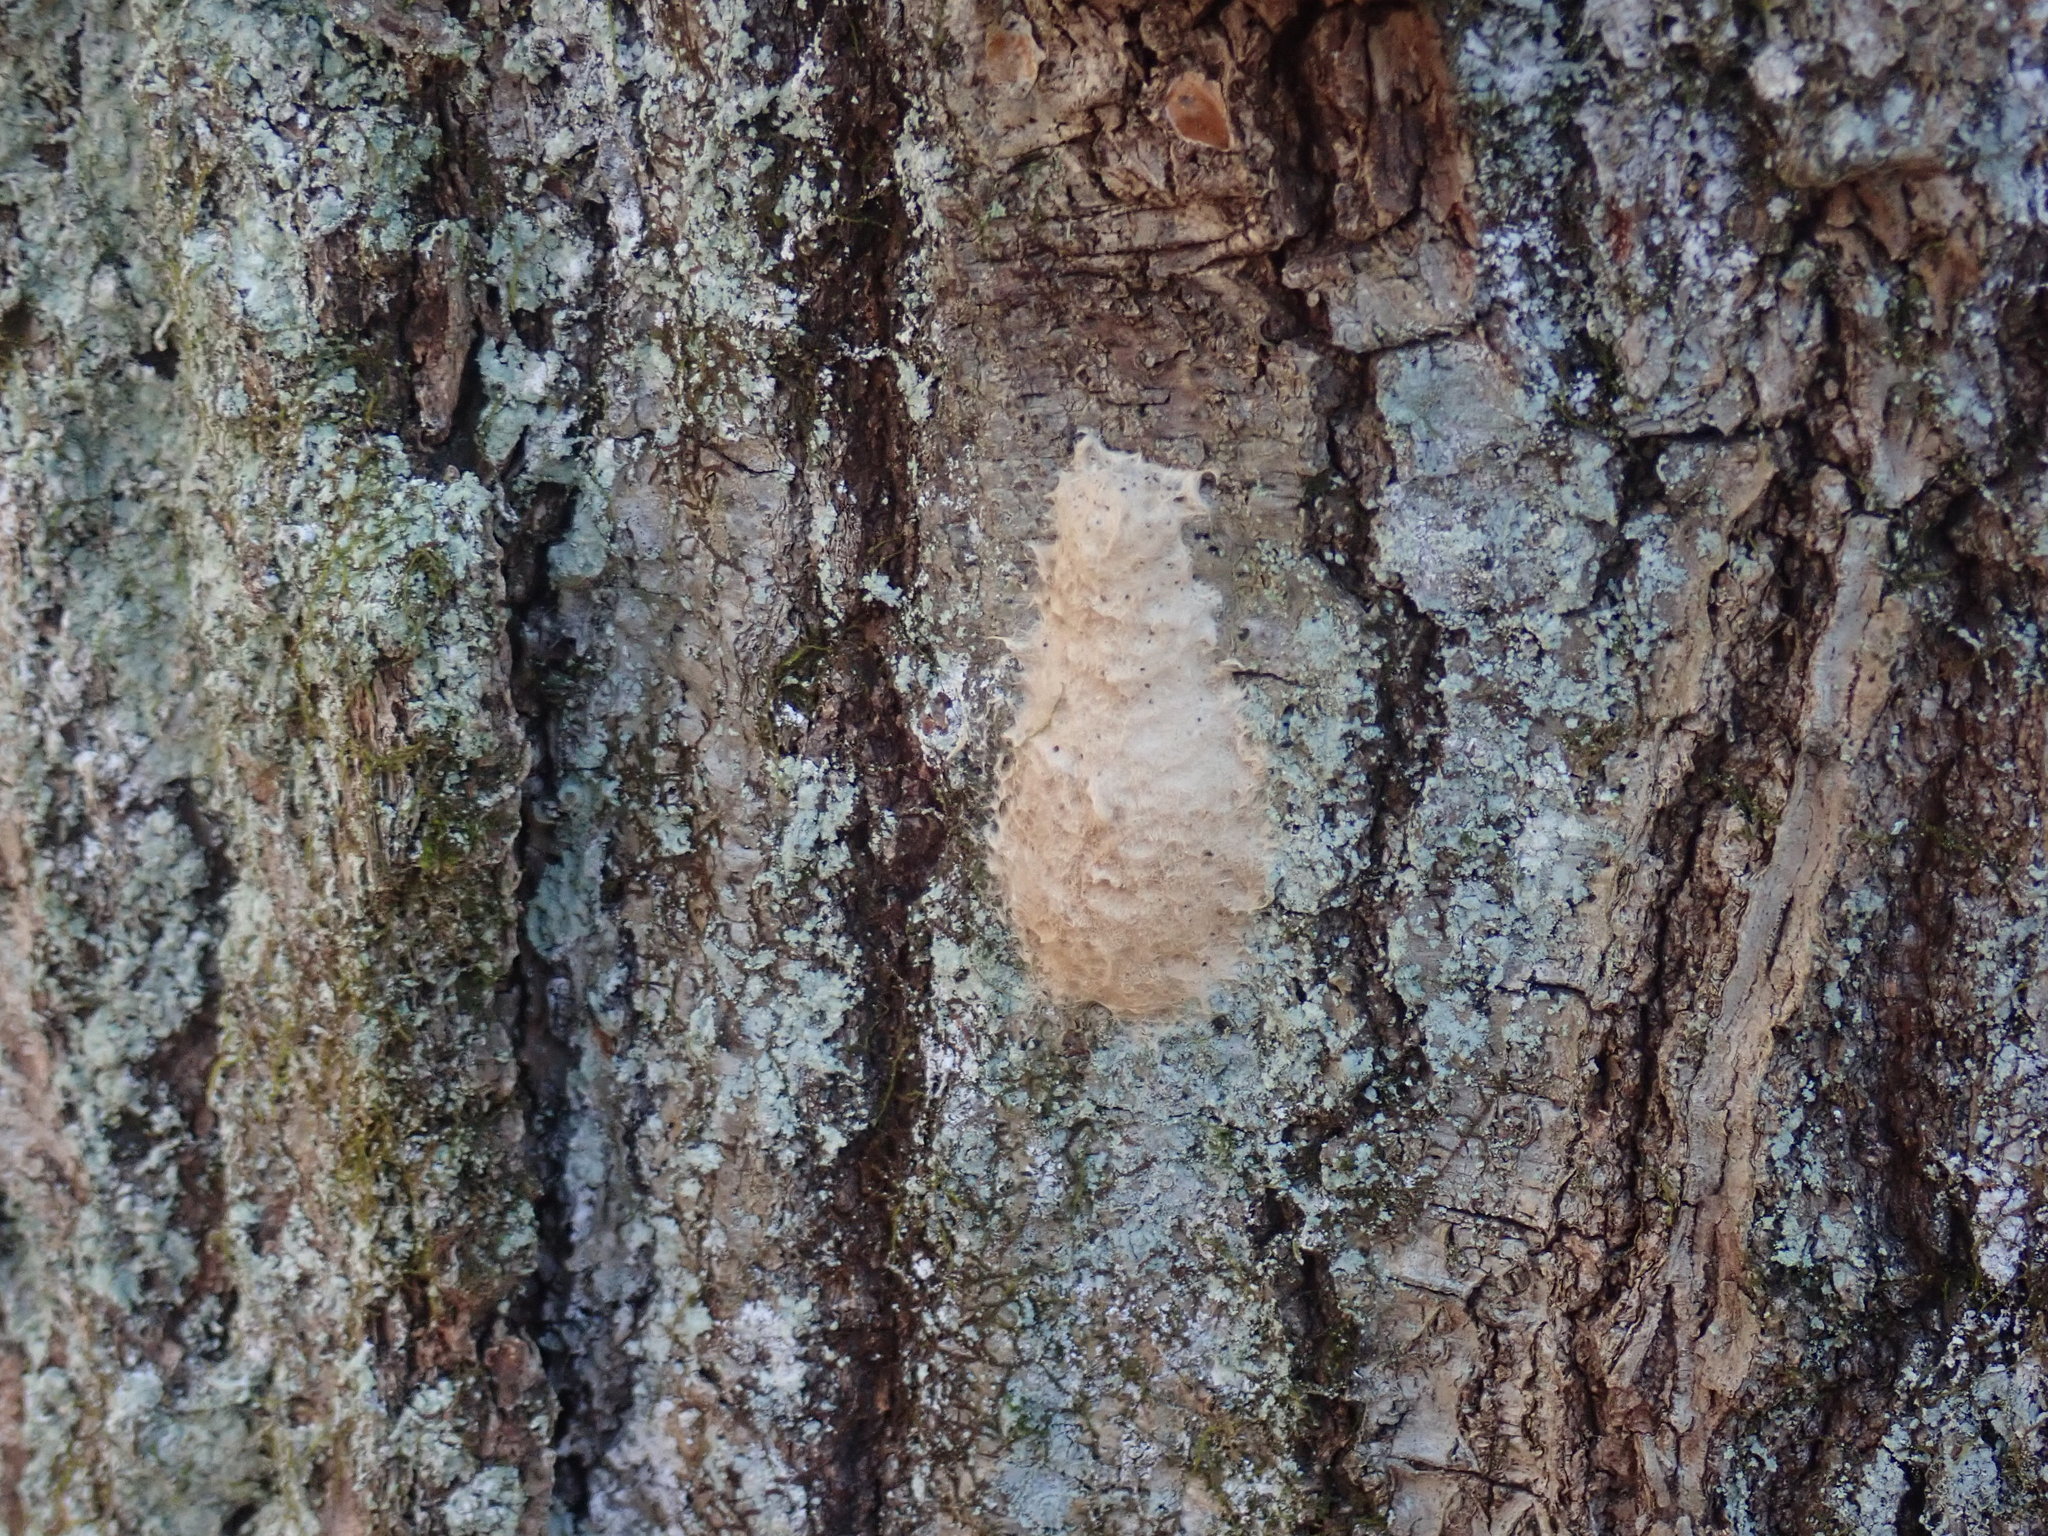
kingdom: Animalia
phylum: Arthropoda
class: Insecta
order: Lepidoptera
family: Erebidae
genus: Lymantria
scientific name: Lymantria dispar
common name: Gypsy moth
